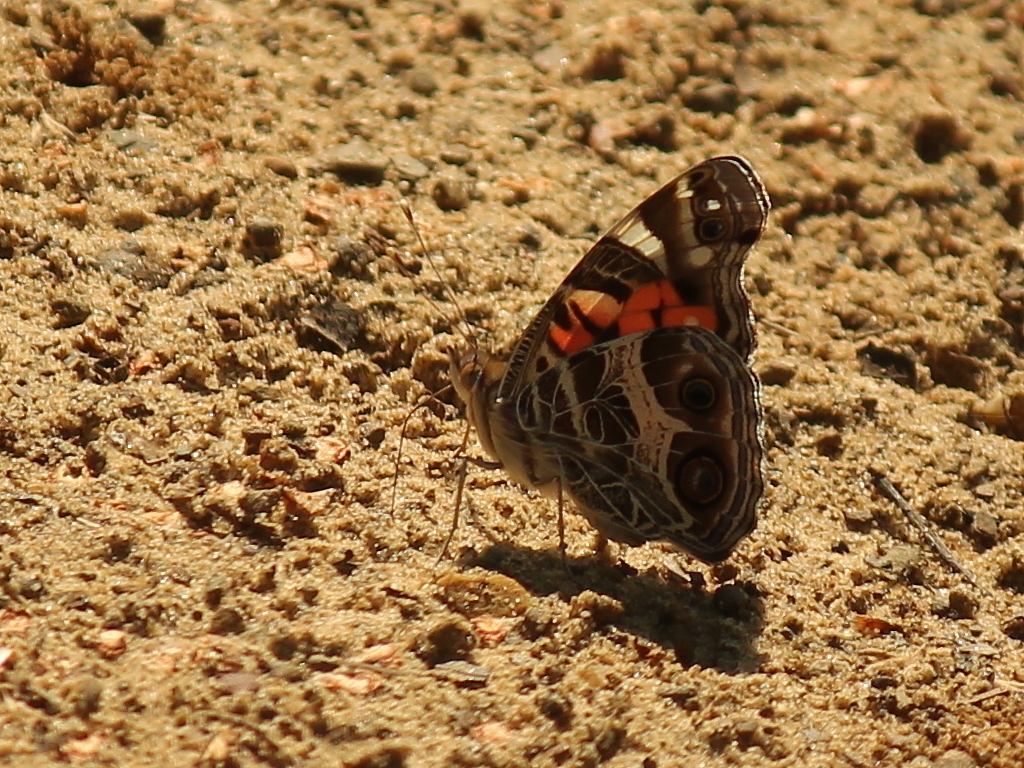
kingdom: Animalia
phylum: Arthropoda
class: Insecta
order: Lepidoptera
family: Nymphalidae
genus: Vanessa
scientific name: Vanessa virginiensis
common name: American lady
